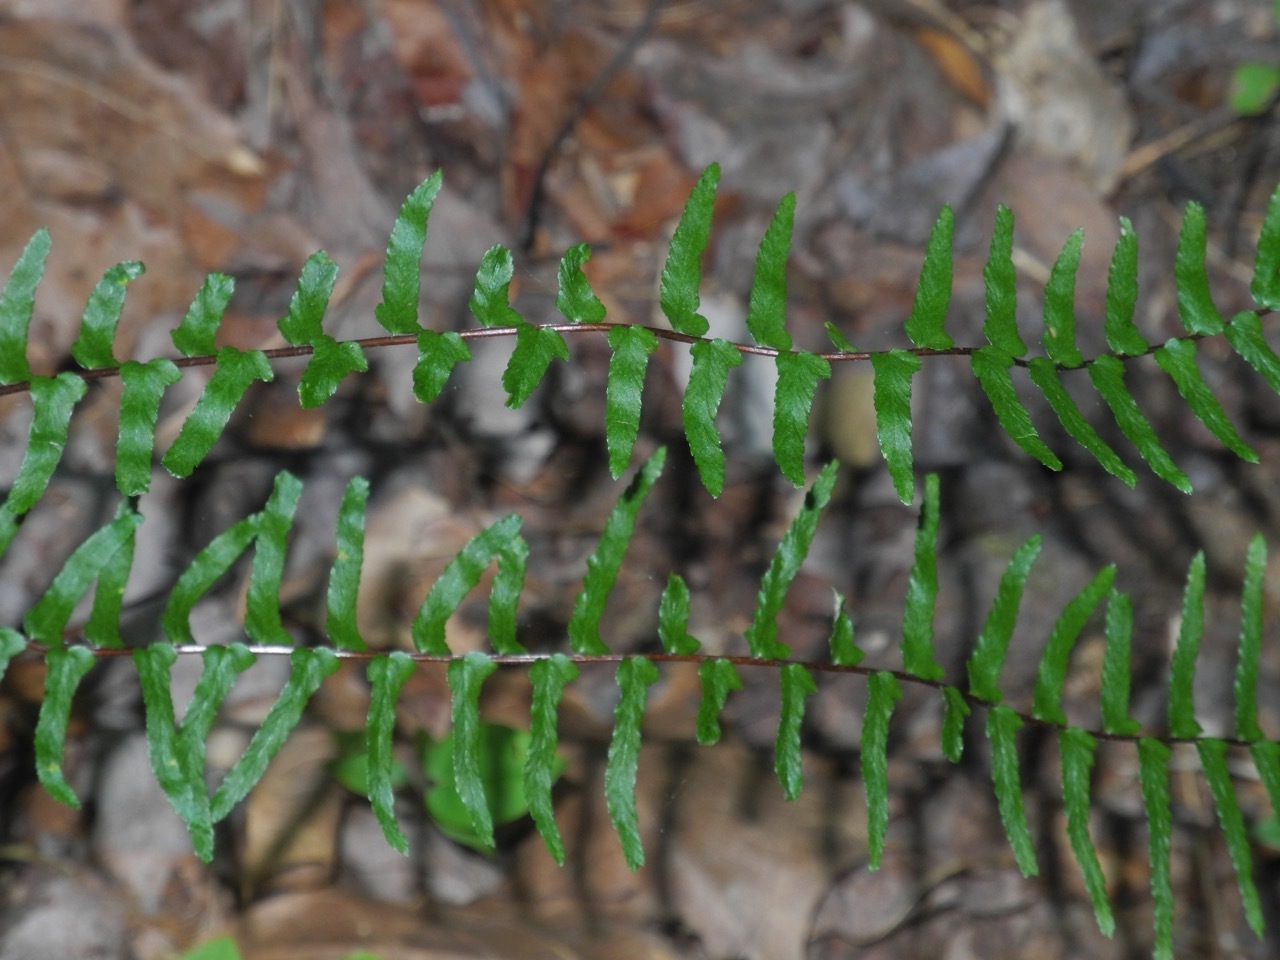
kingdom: Plantae
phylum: Tracheophyta
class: Polypodiopsida
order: Polypodiales
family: Aspleniaceae
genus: Asplenium
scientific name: Asplenium platyneuron
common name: Ebony spleenwort
